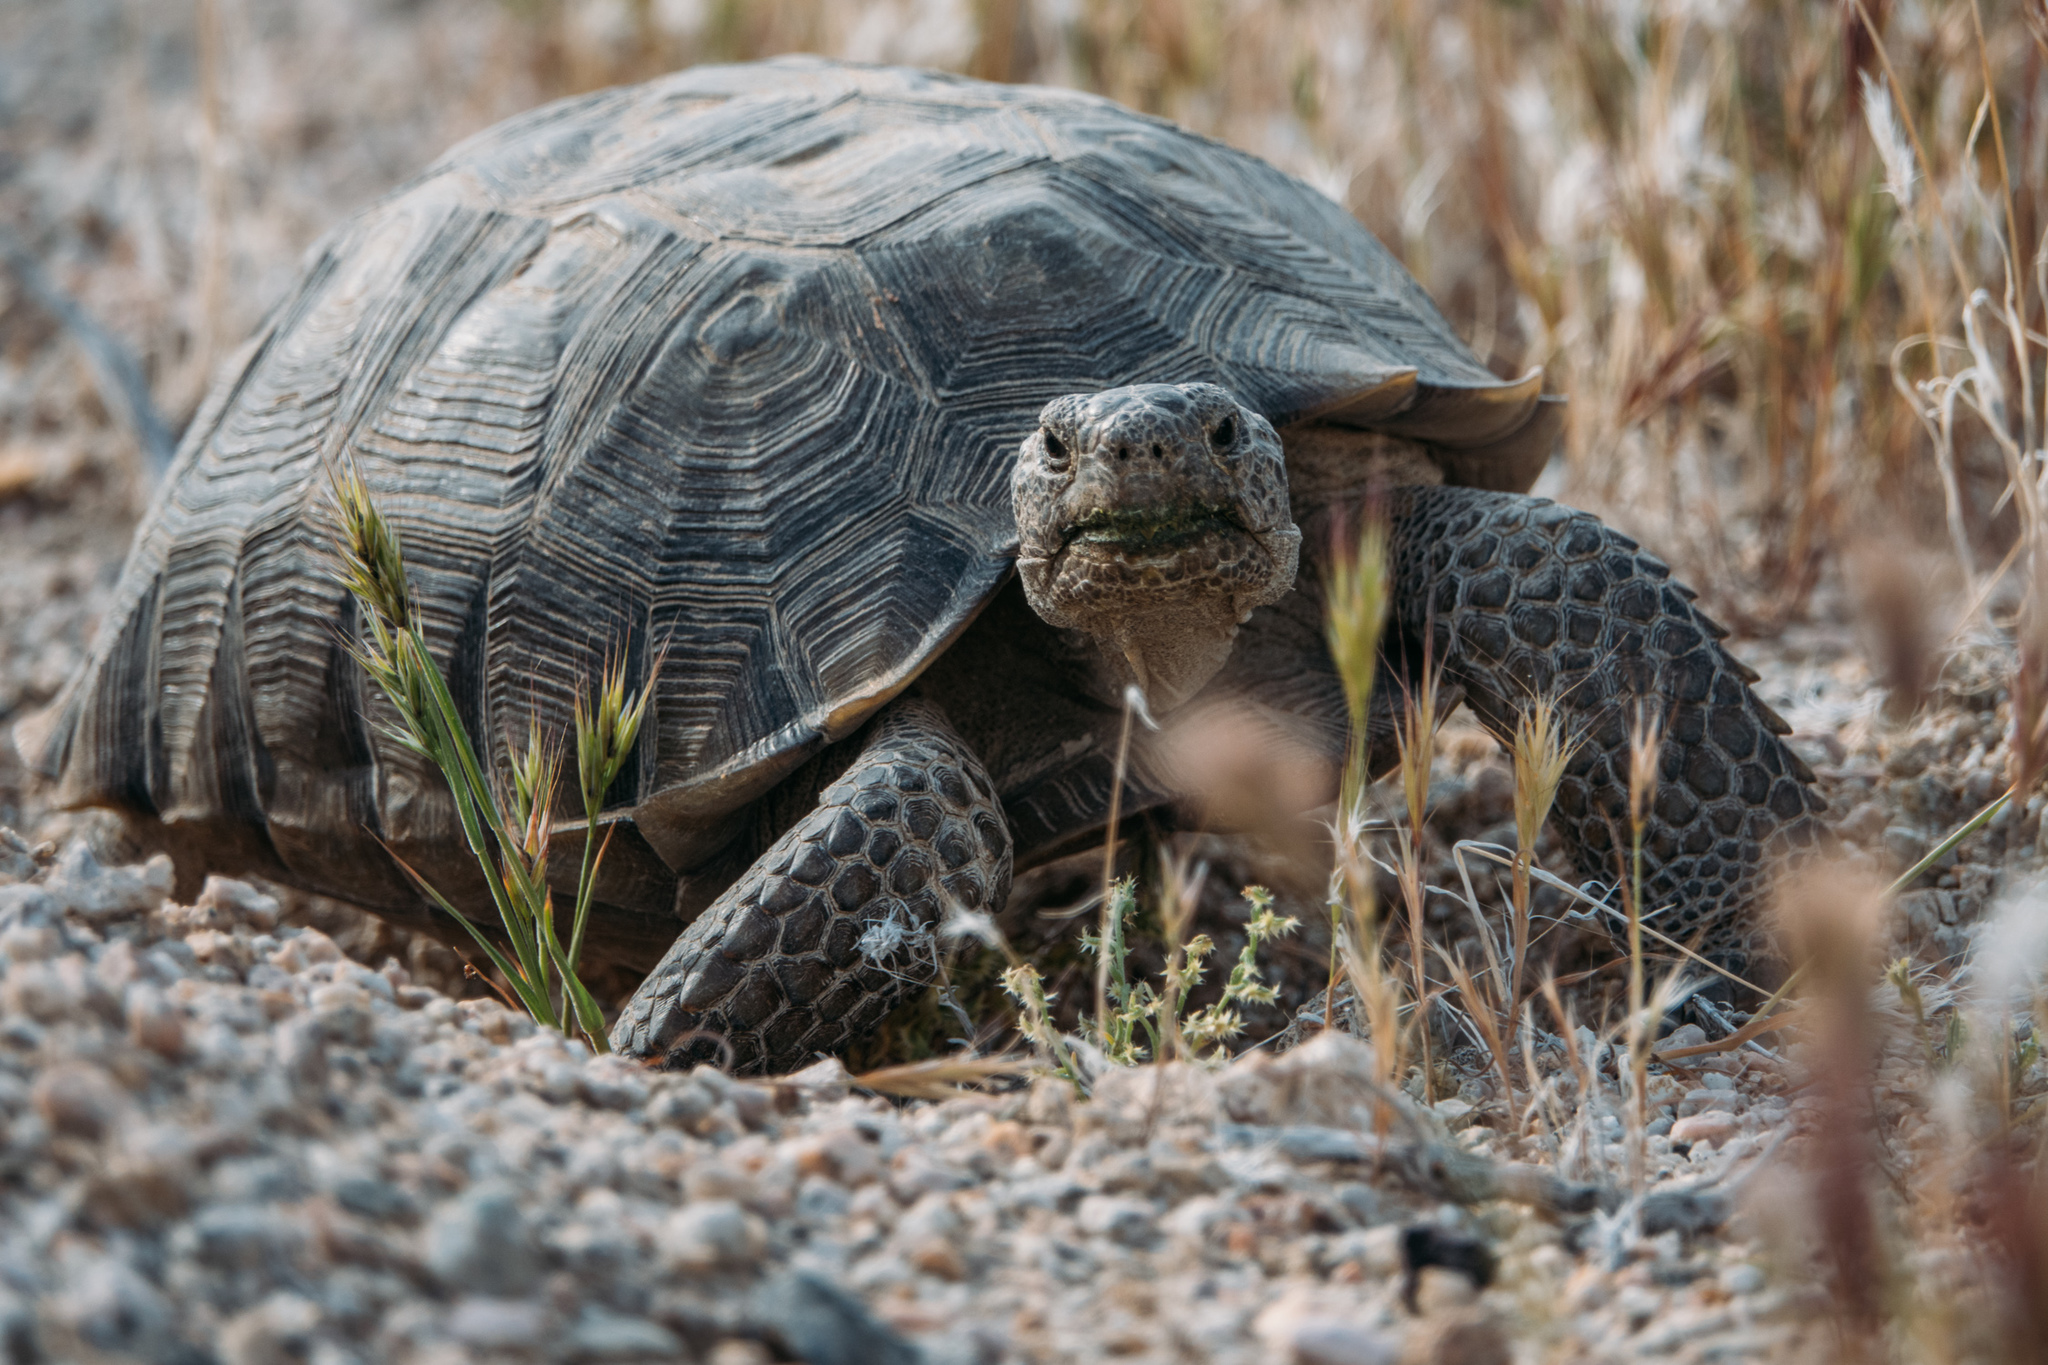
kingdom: Animalia
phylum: Chordata
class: Testudines
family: Testudinidae
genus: Gopherus
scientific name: Gopherus agassizii
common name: Mojave desert tortoise
